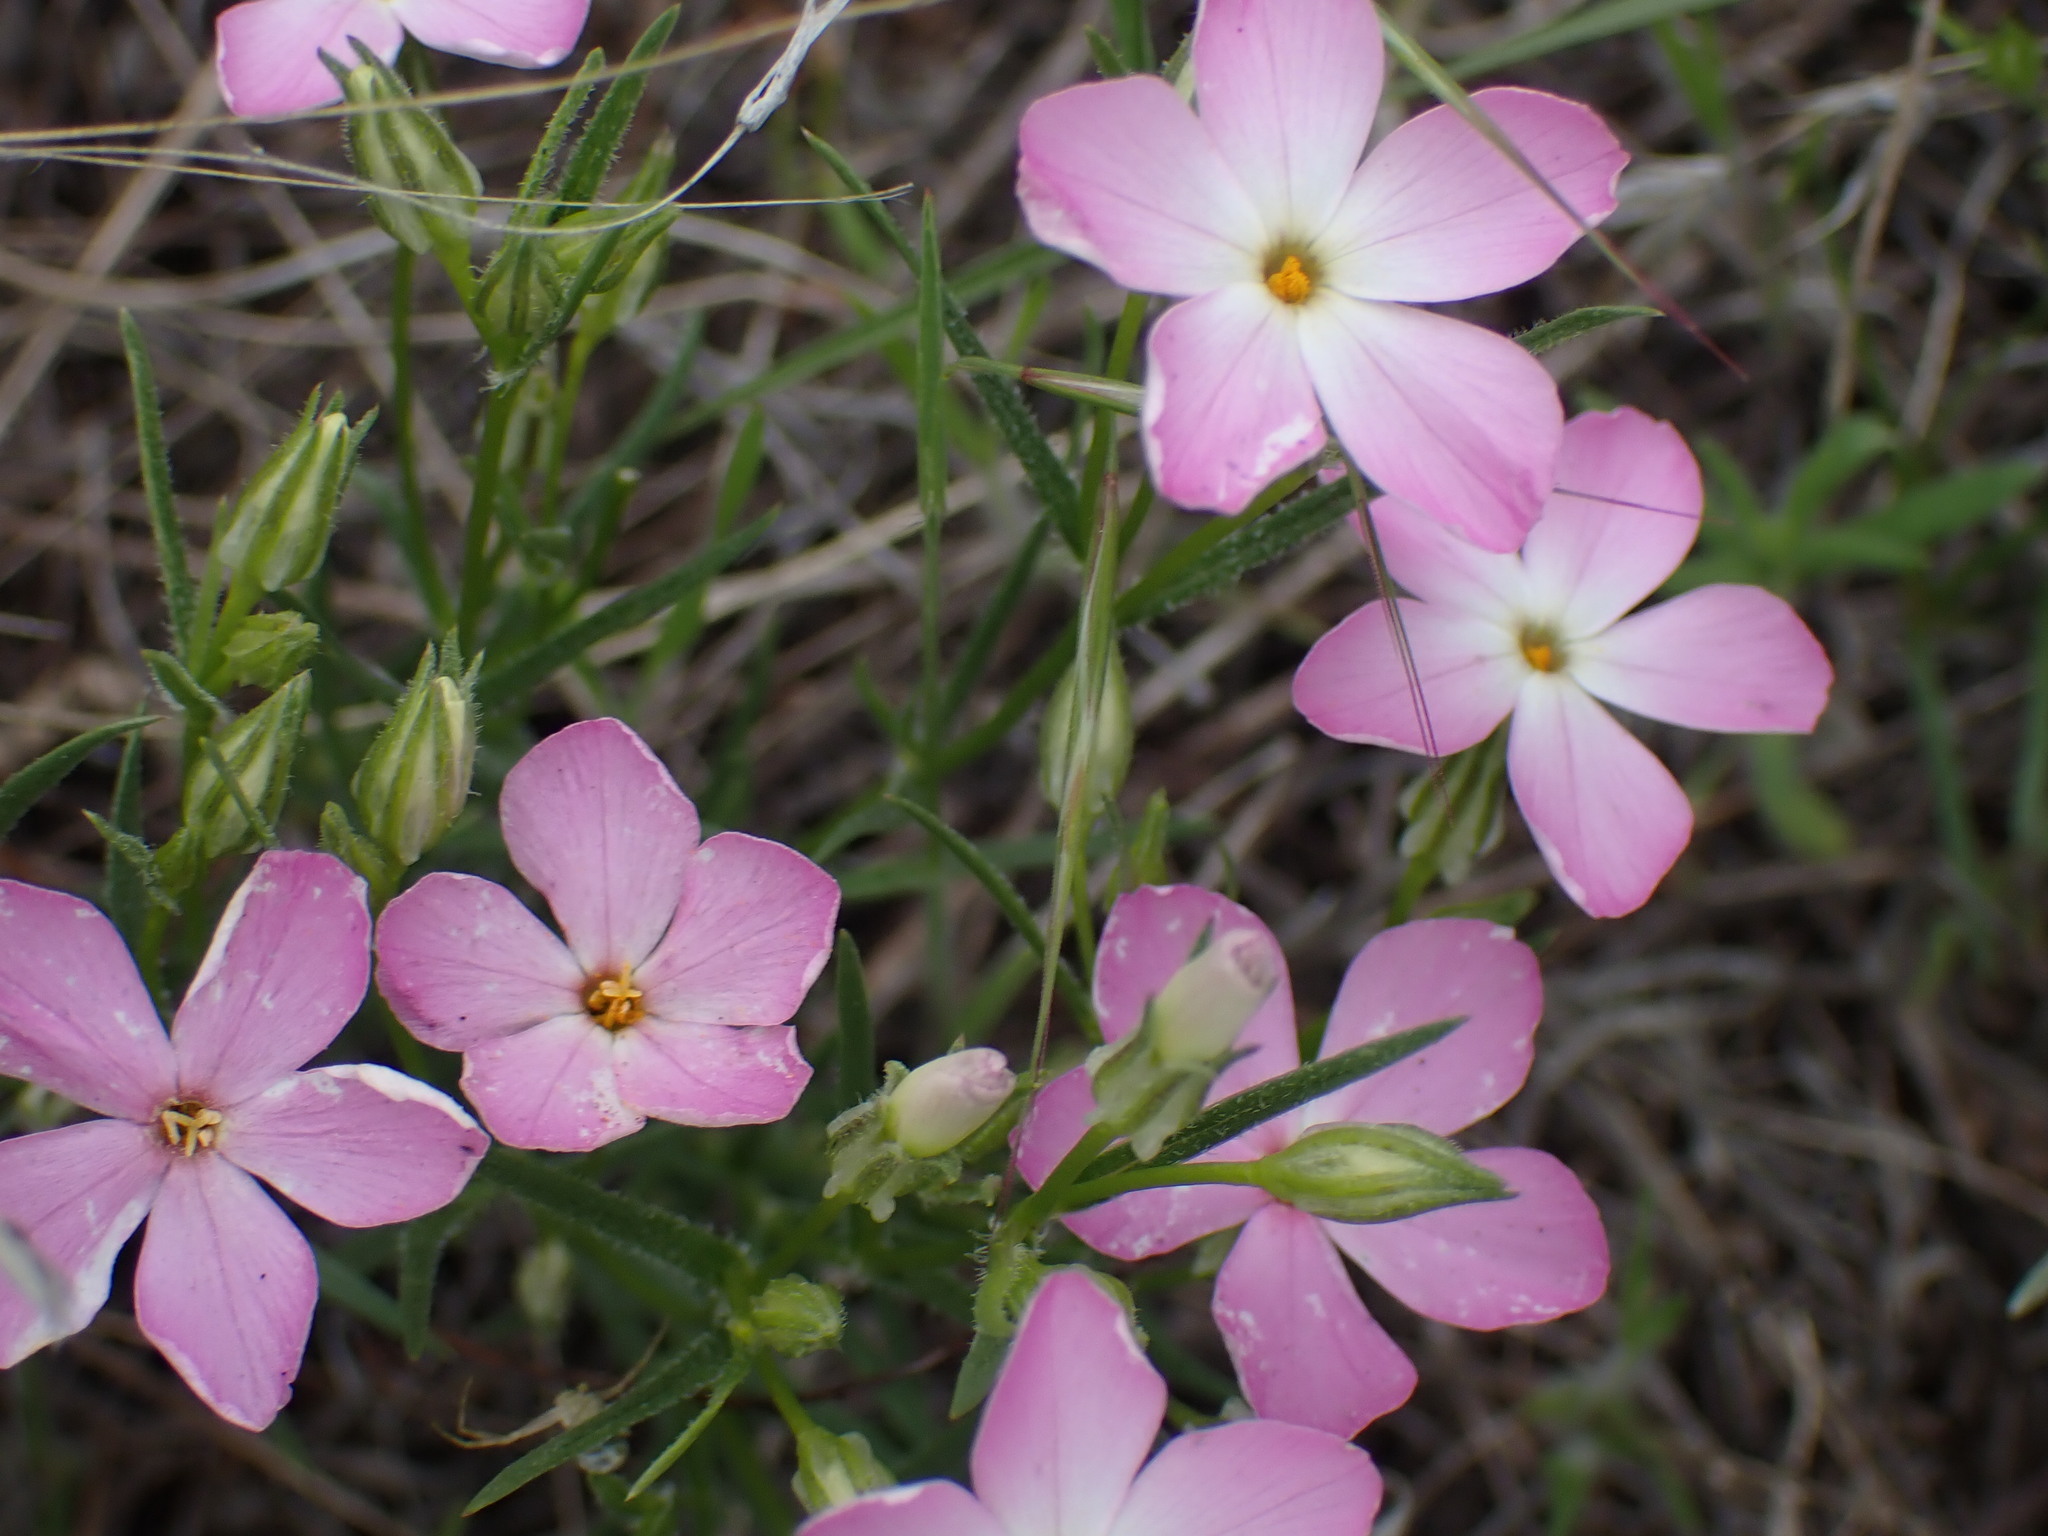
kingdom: Plantae
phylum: Tracheophyta
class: Magnoliopsida
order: Ericales
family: Polemoniaceae
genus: Phlox
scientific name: Phlox longifolia
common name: Longleaf phlox
